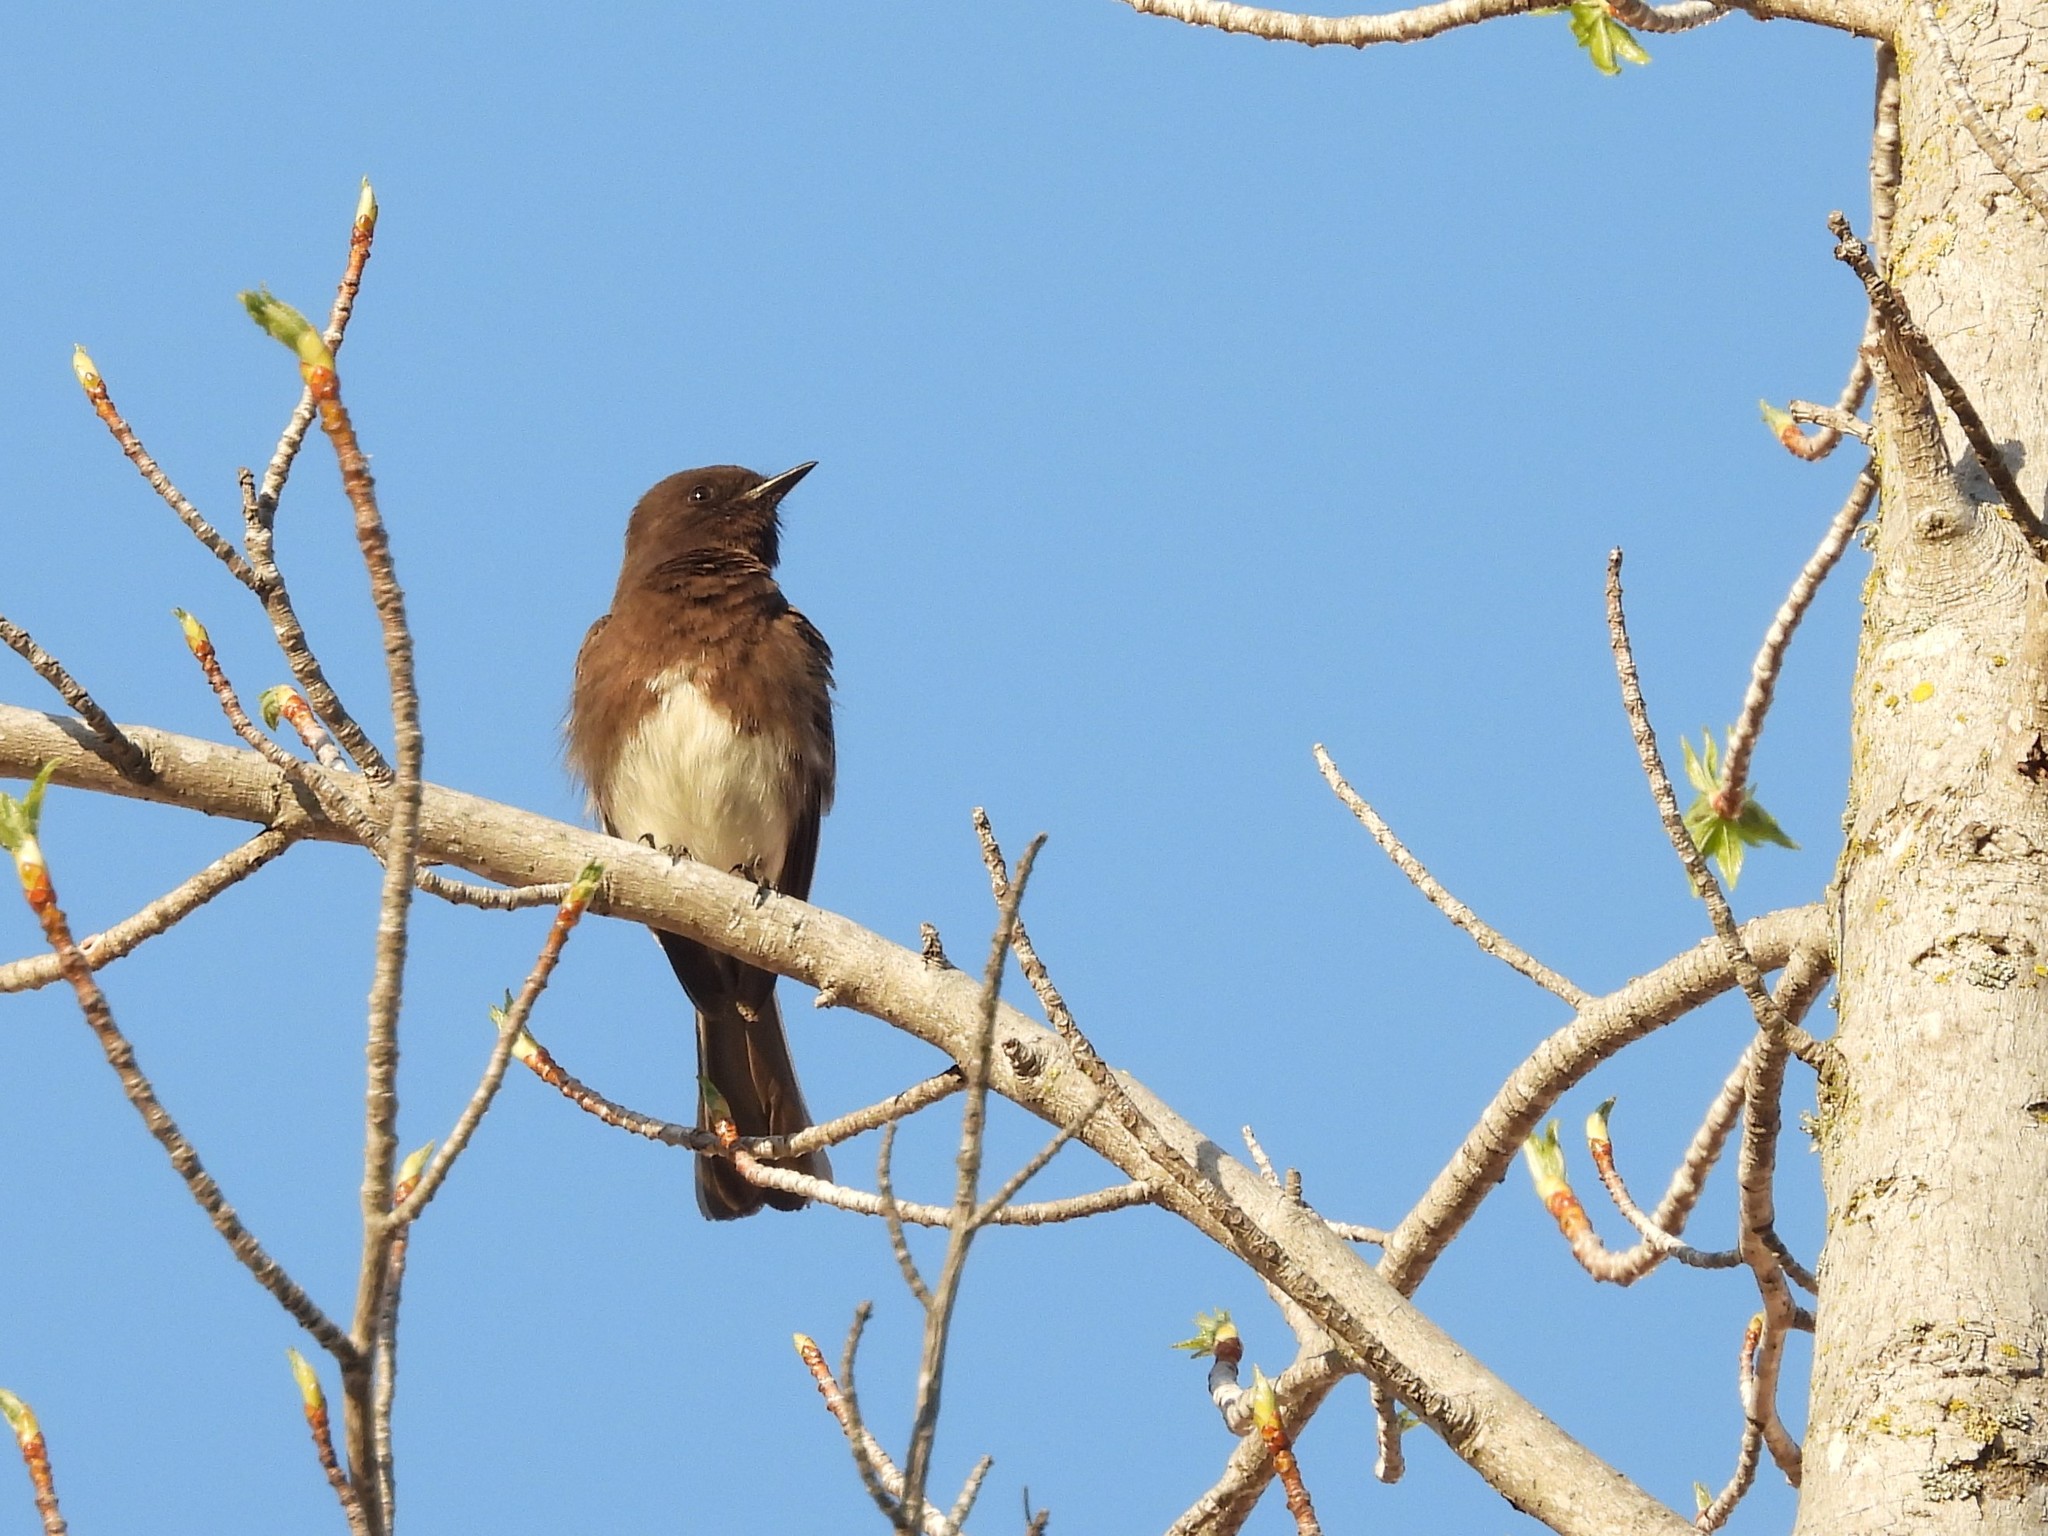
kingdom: Animalia
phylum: Chordata
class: Aves
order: Passeriformes
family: Tyrannidae
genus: Sayornis
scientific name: Sayornis nigricans
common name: Black phoebe
